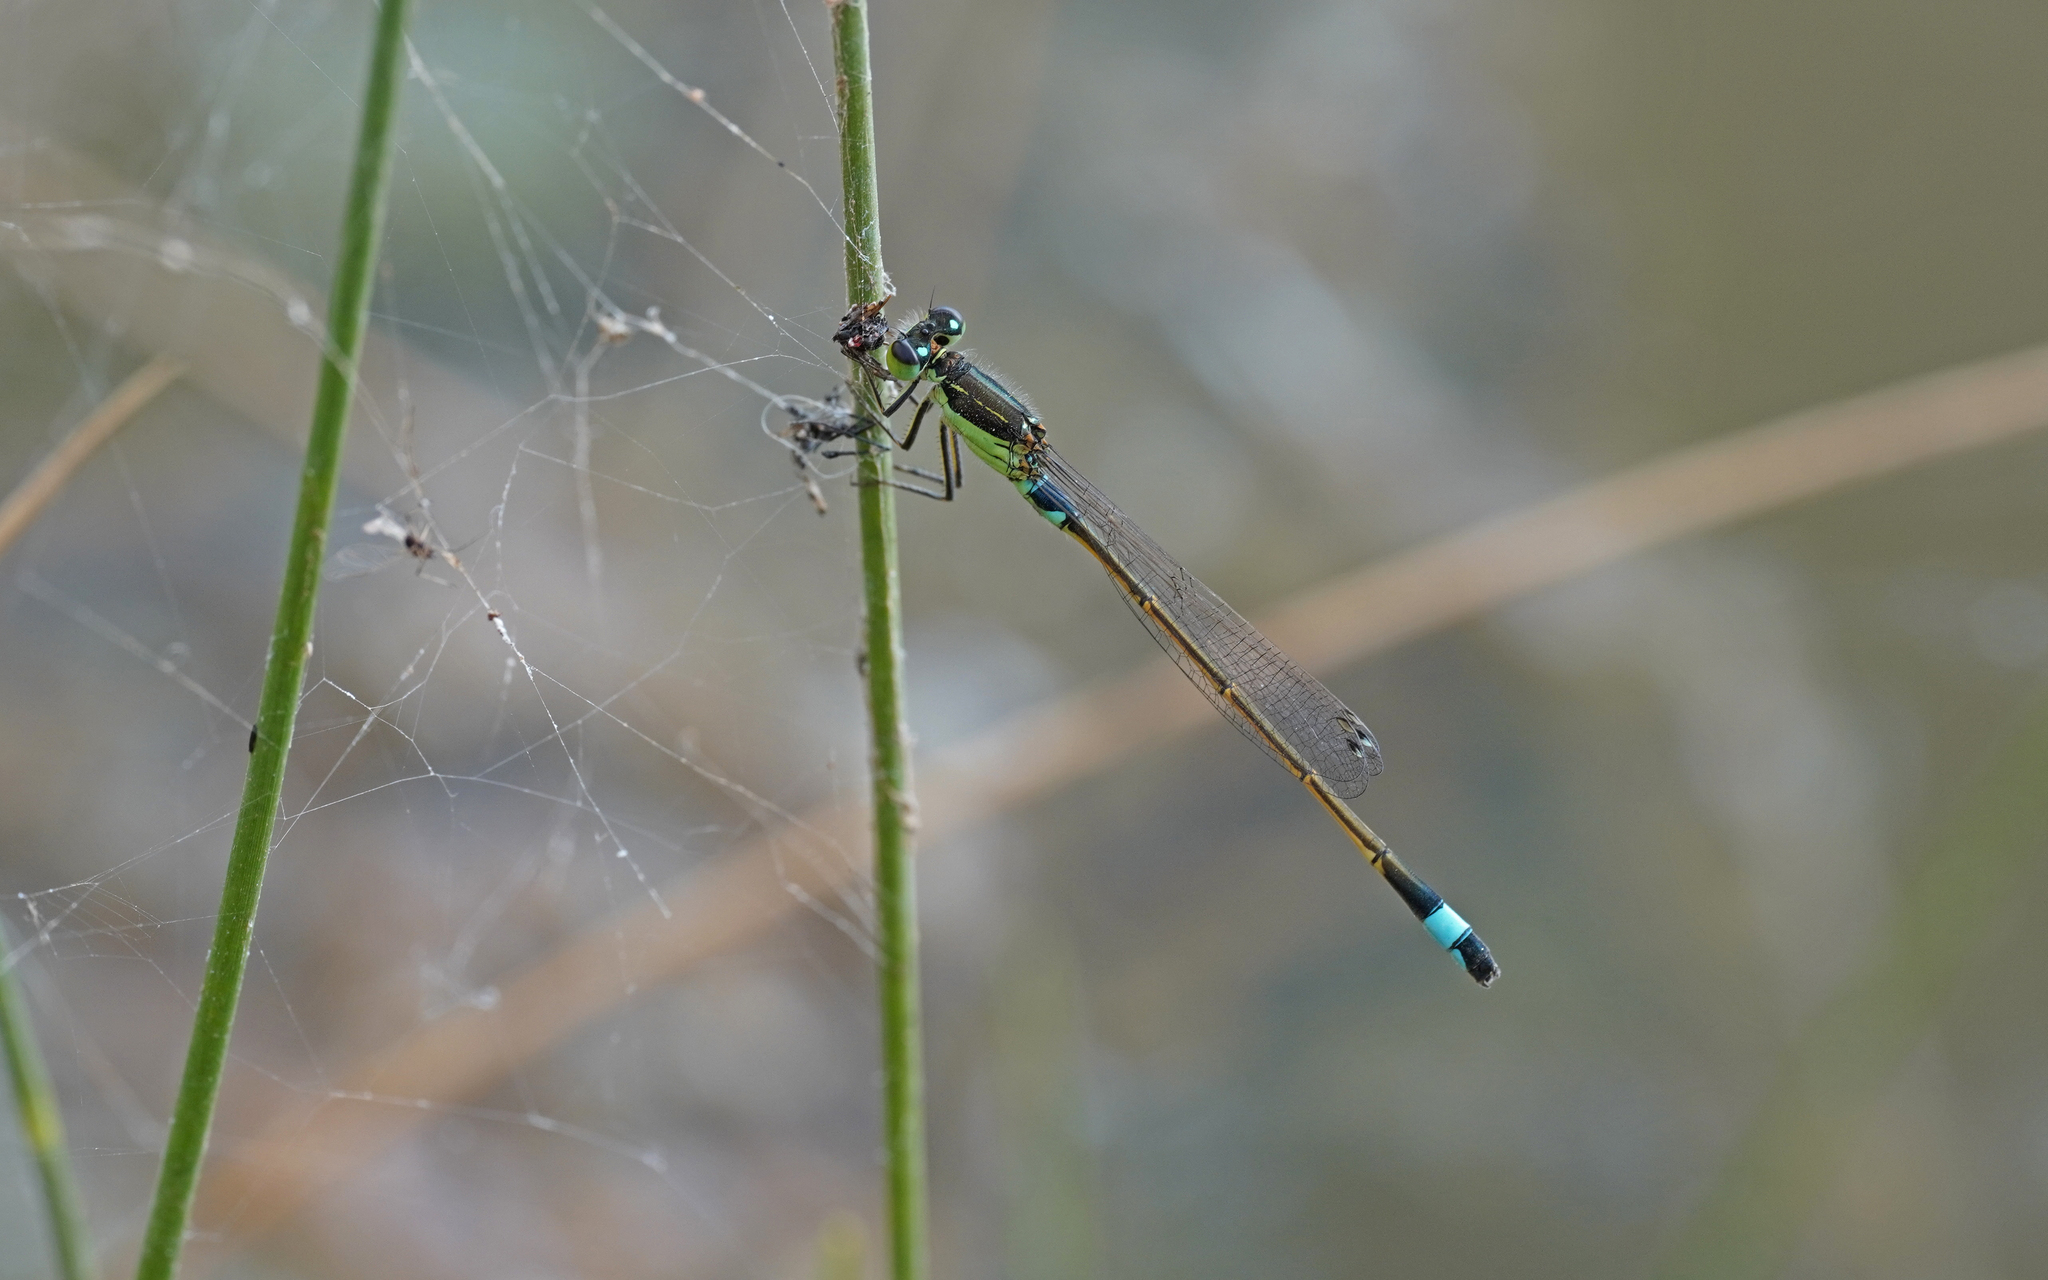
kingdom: Animalia
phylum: Arthropoda
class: Insecta
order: Odonata
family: Coenagrionidae
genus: Ischnura
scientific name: Ischnura senegalensis
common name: Tropical bluetail
